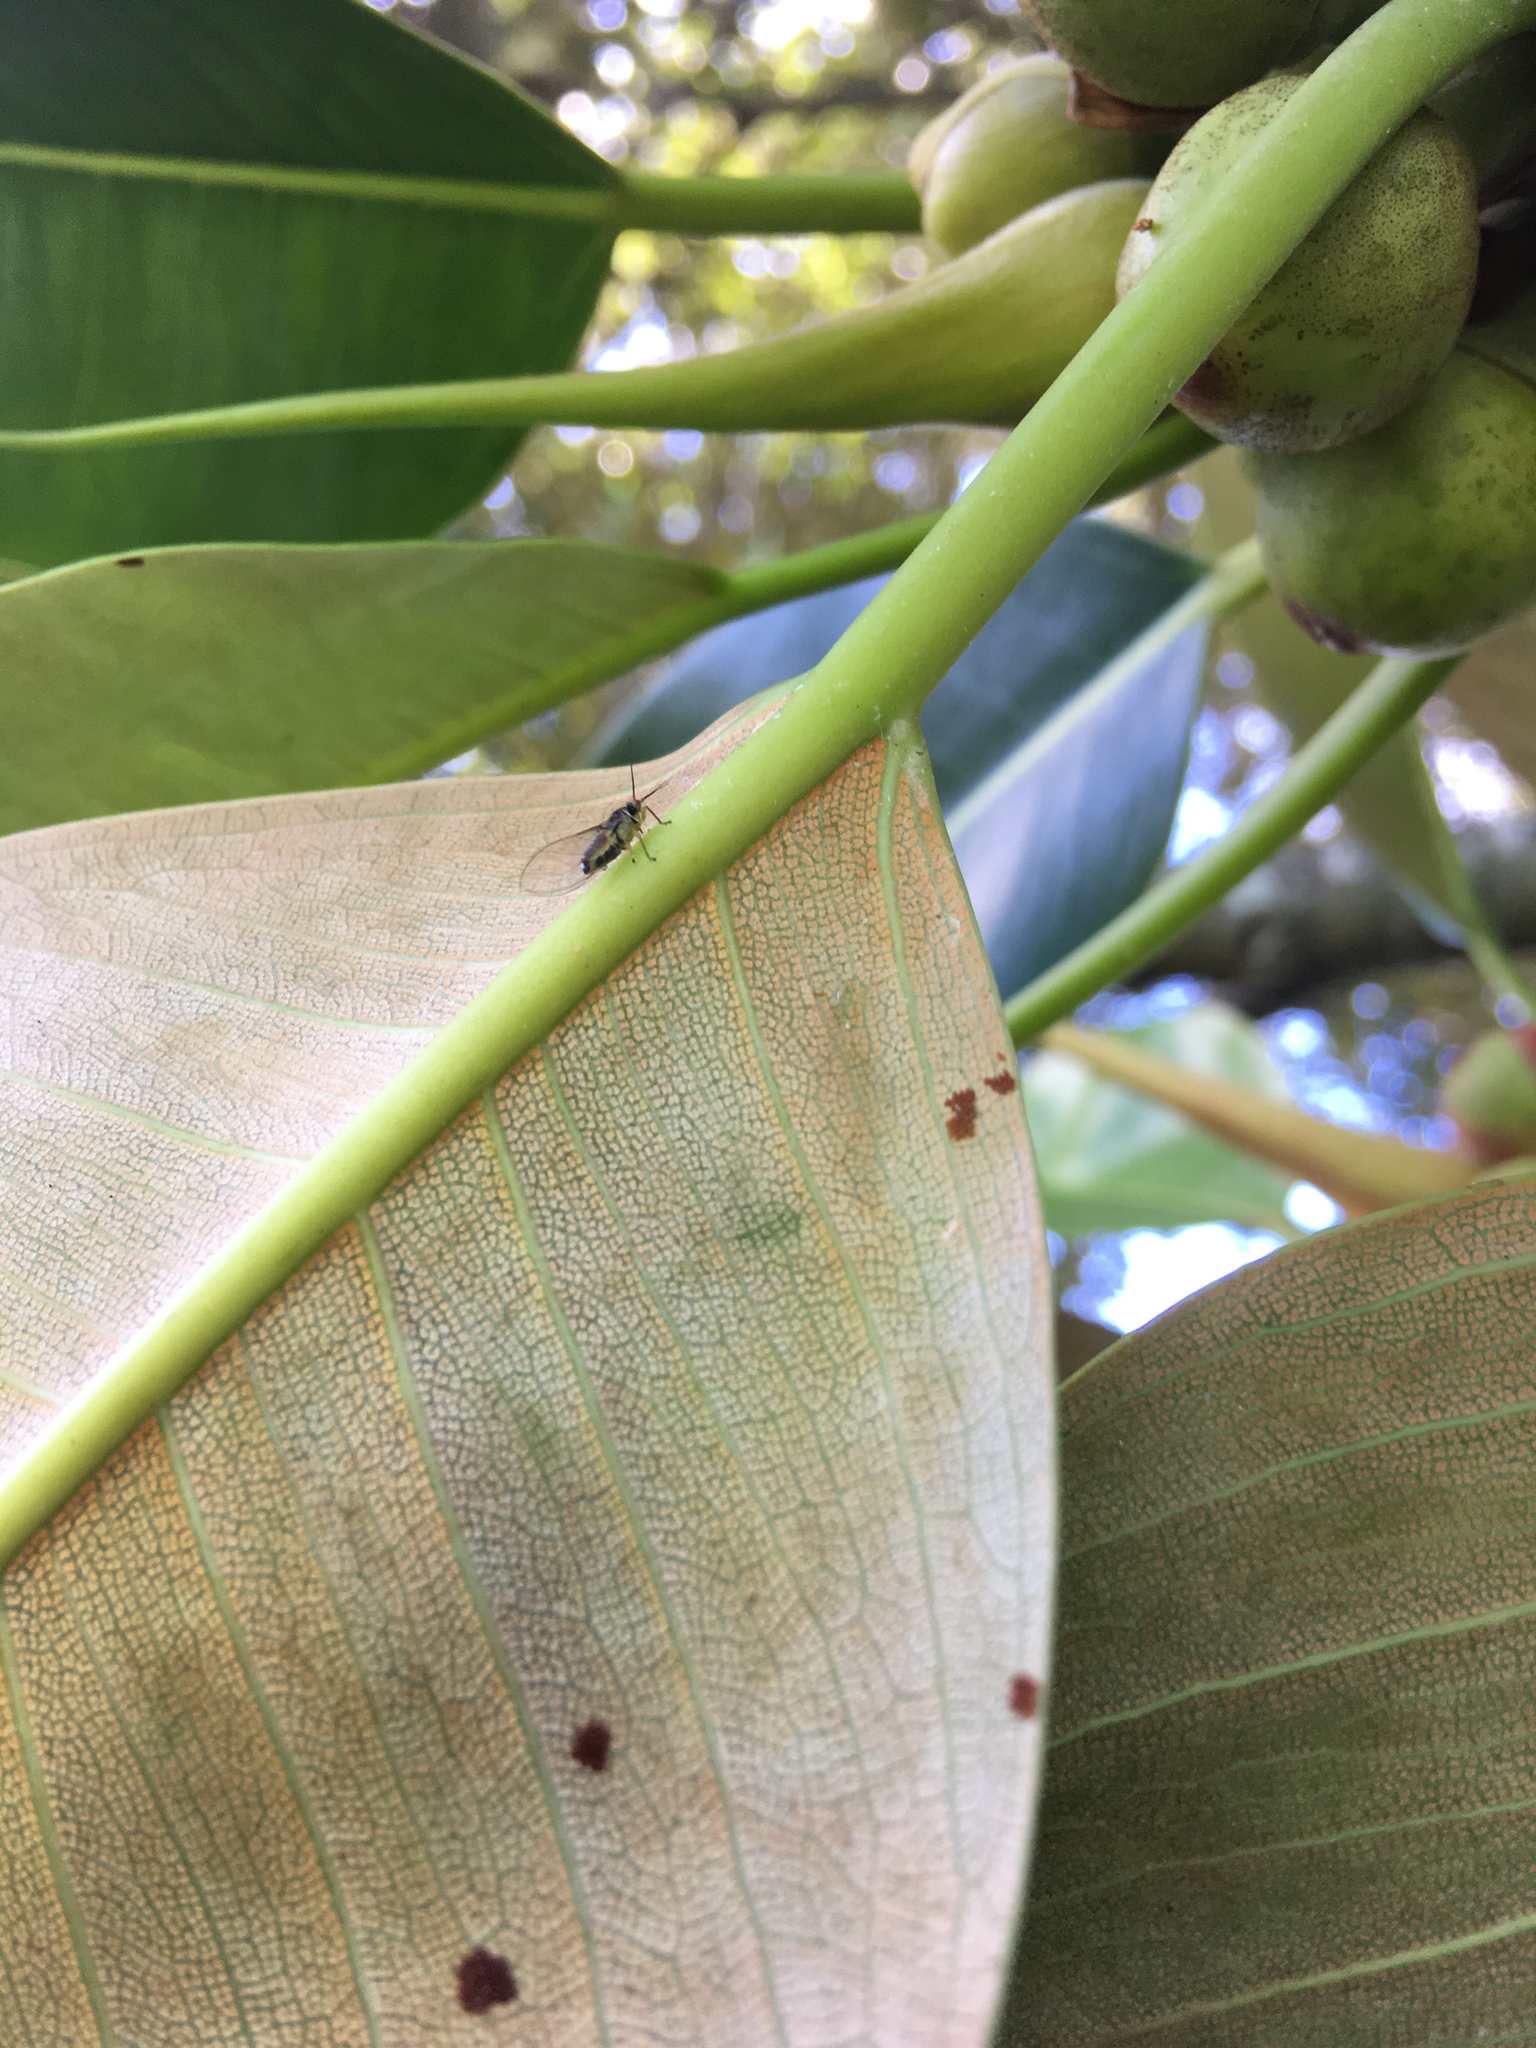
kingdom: Animalia
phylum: Arthropoda
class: Insecta
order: Hemiptera
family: Homotomidae
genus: Mycopsylla
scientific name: Mycopsylla fici
